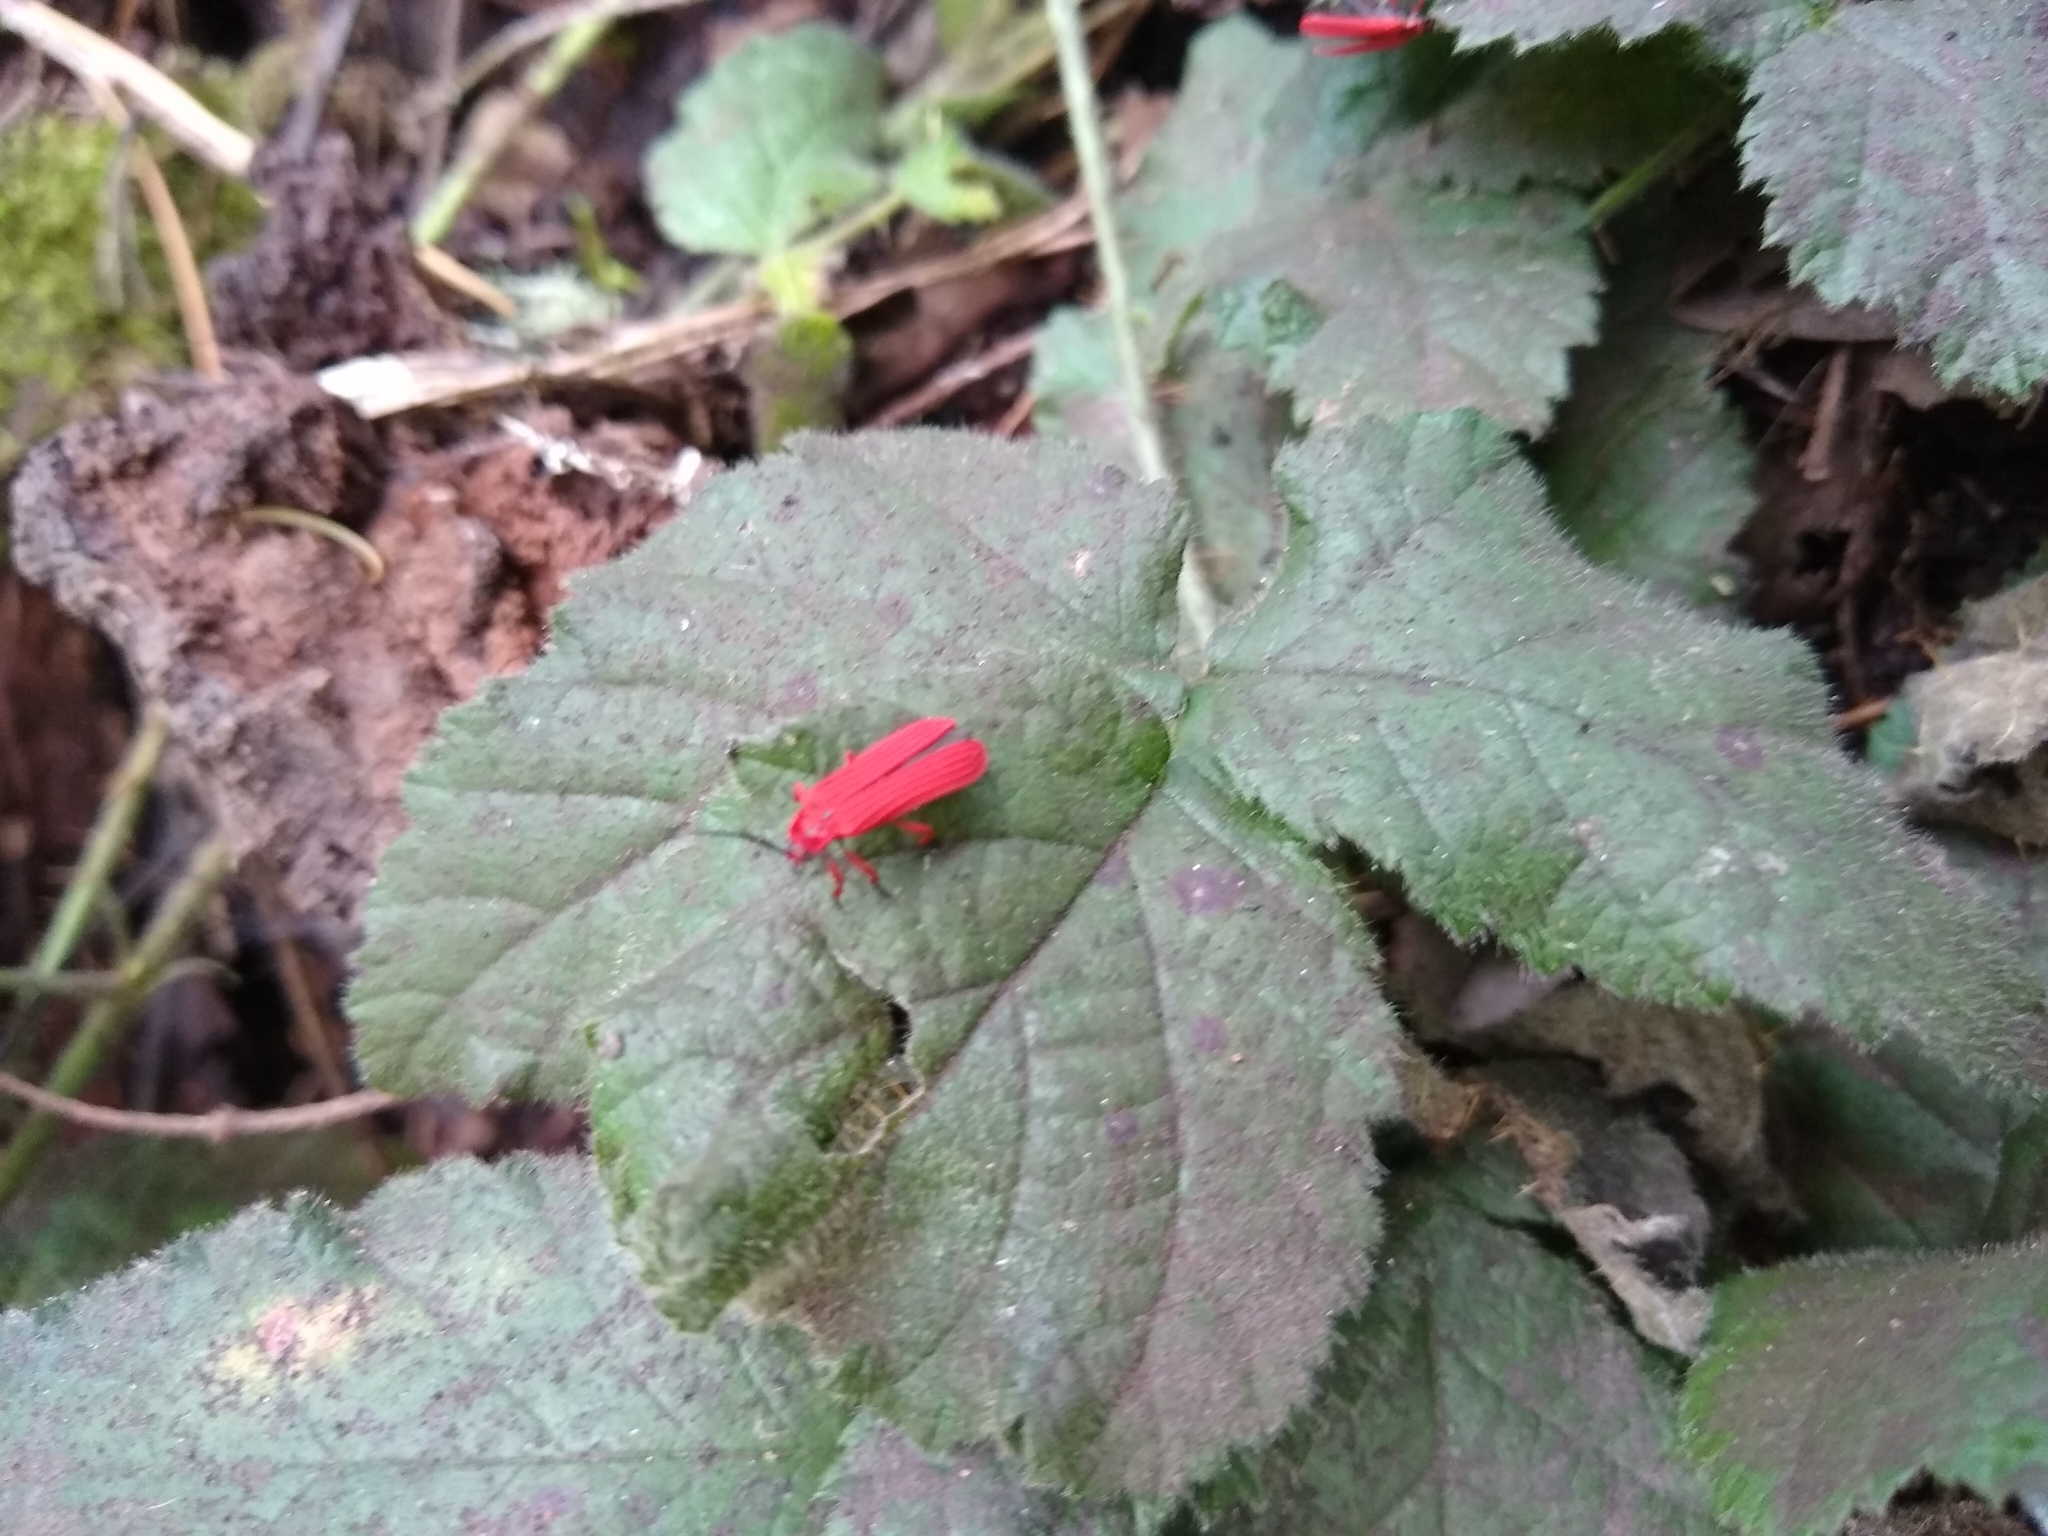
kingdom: Animalia
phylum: Arthropoda
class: Insecta
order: Coleoptera
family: Lycidae
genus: Dictyoptera
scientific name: Dictyoptera simplicipes
